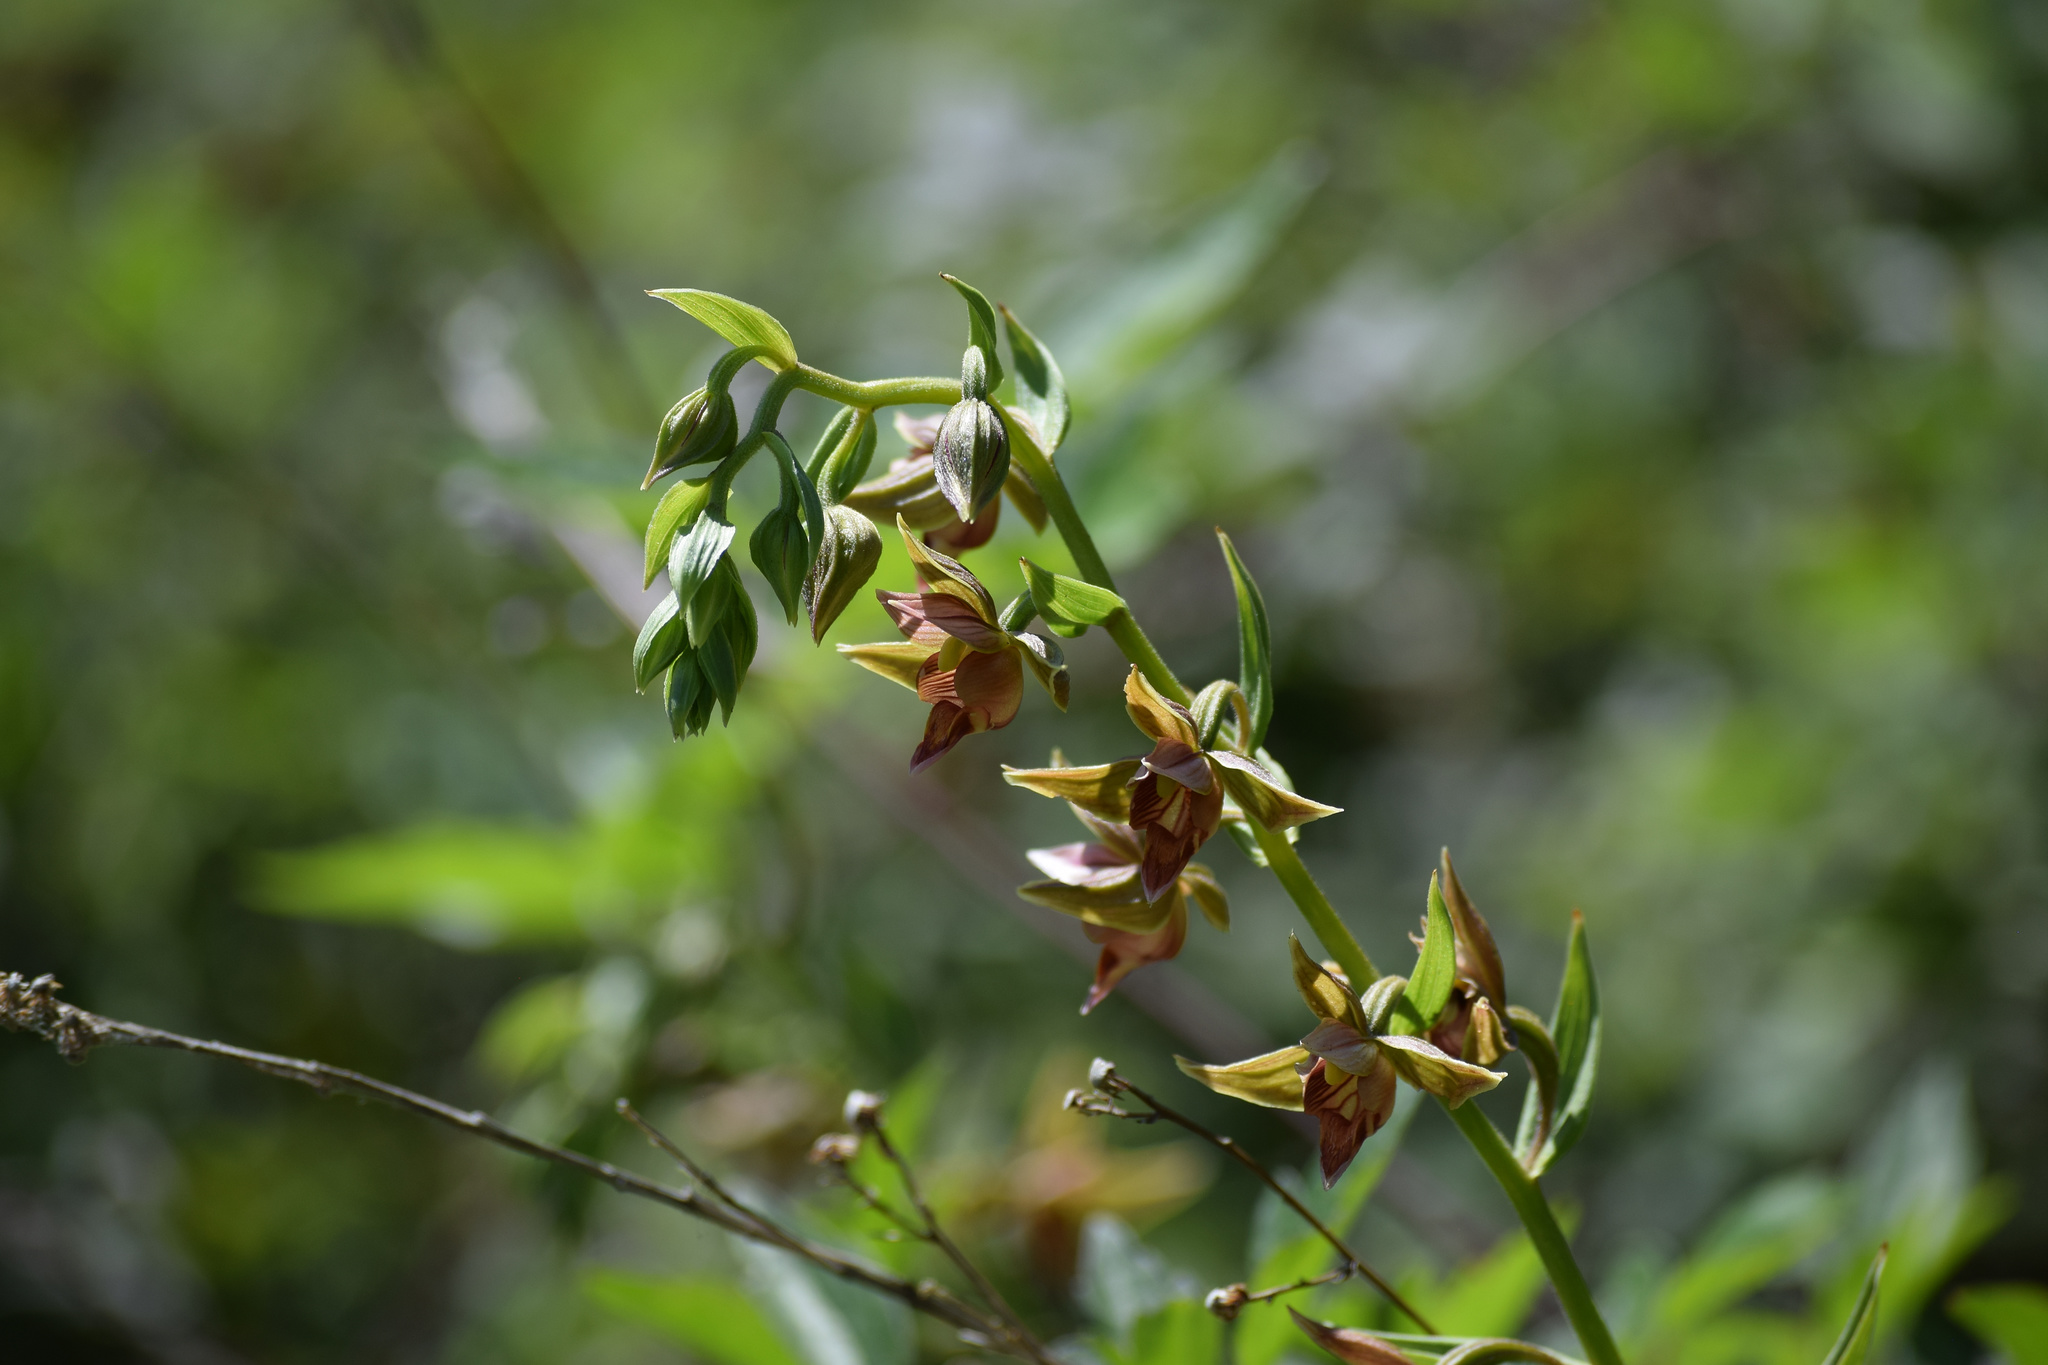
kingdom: Plantae
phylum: Tracheophyta
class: Liliopsida
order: Asparagales
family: Orchidaceae
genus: Epipactis
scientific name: Epipactis gigantea
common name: Chatterbox
